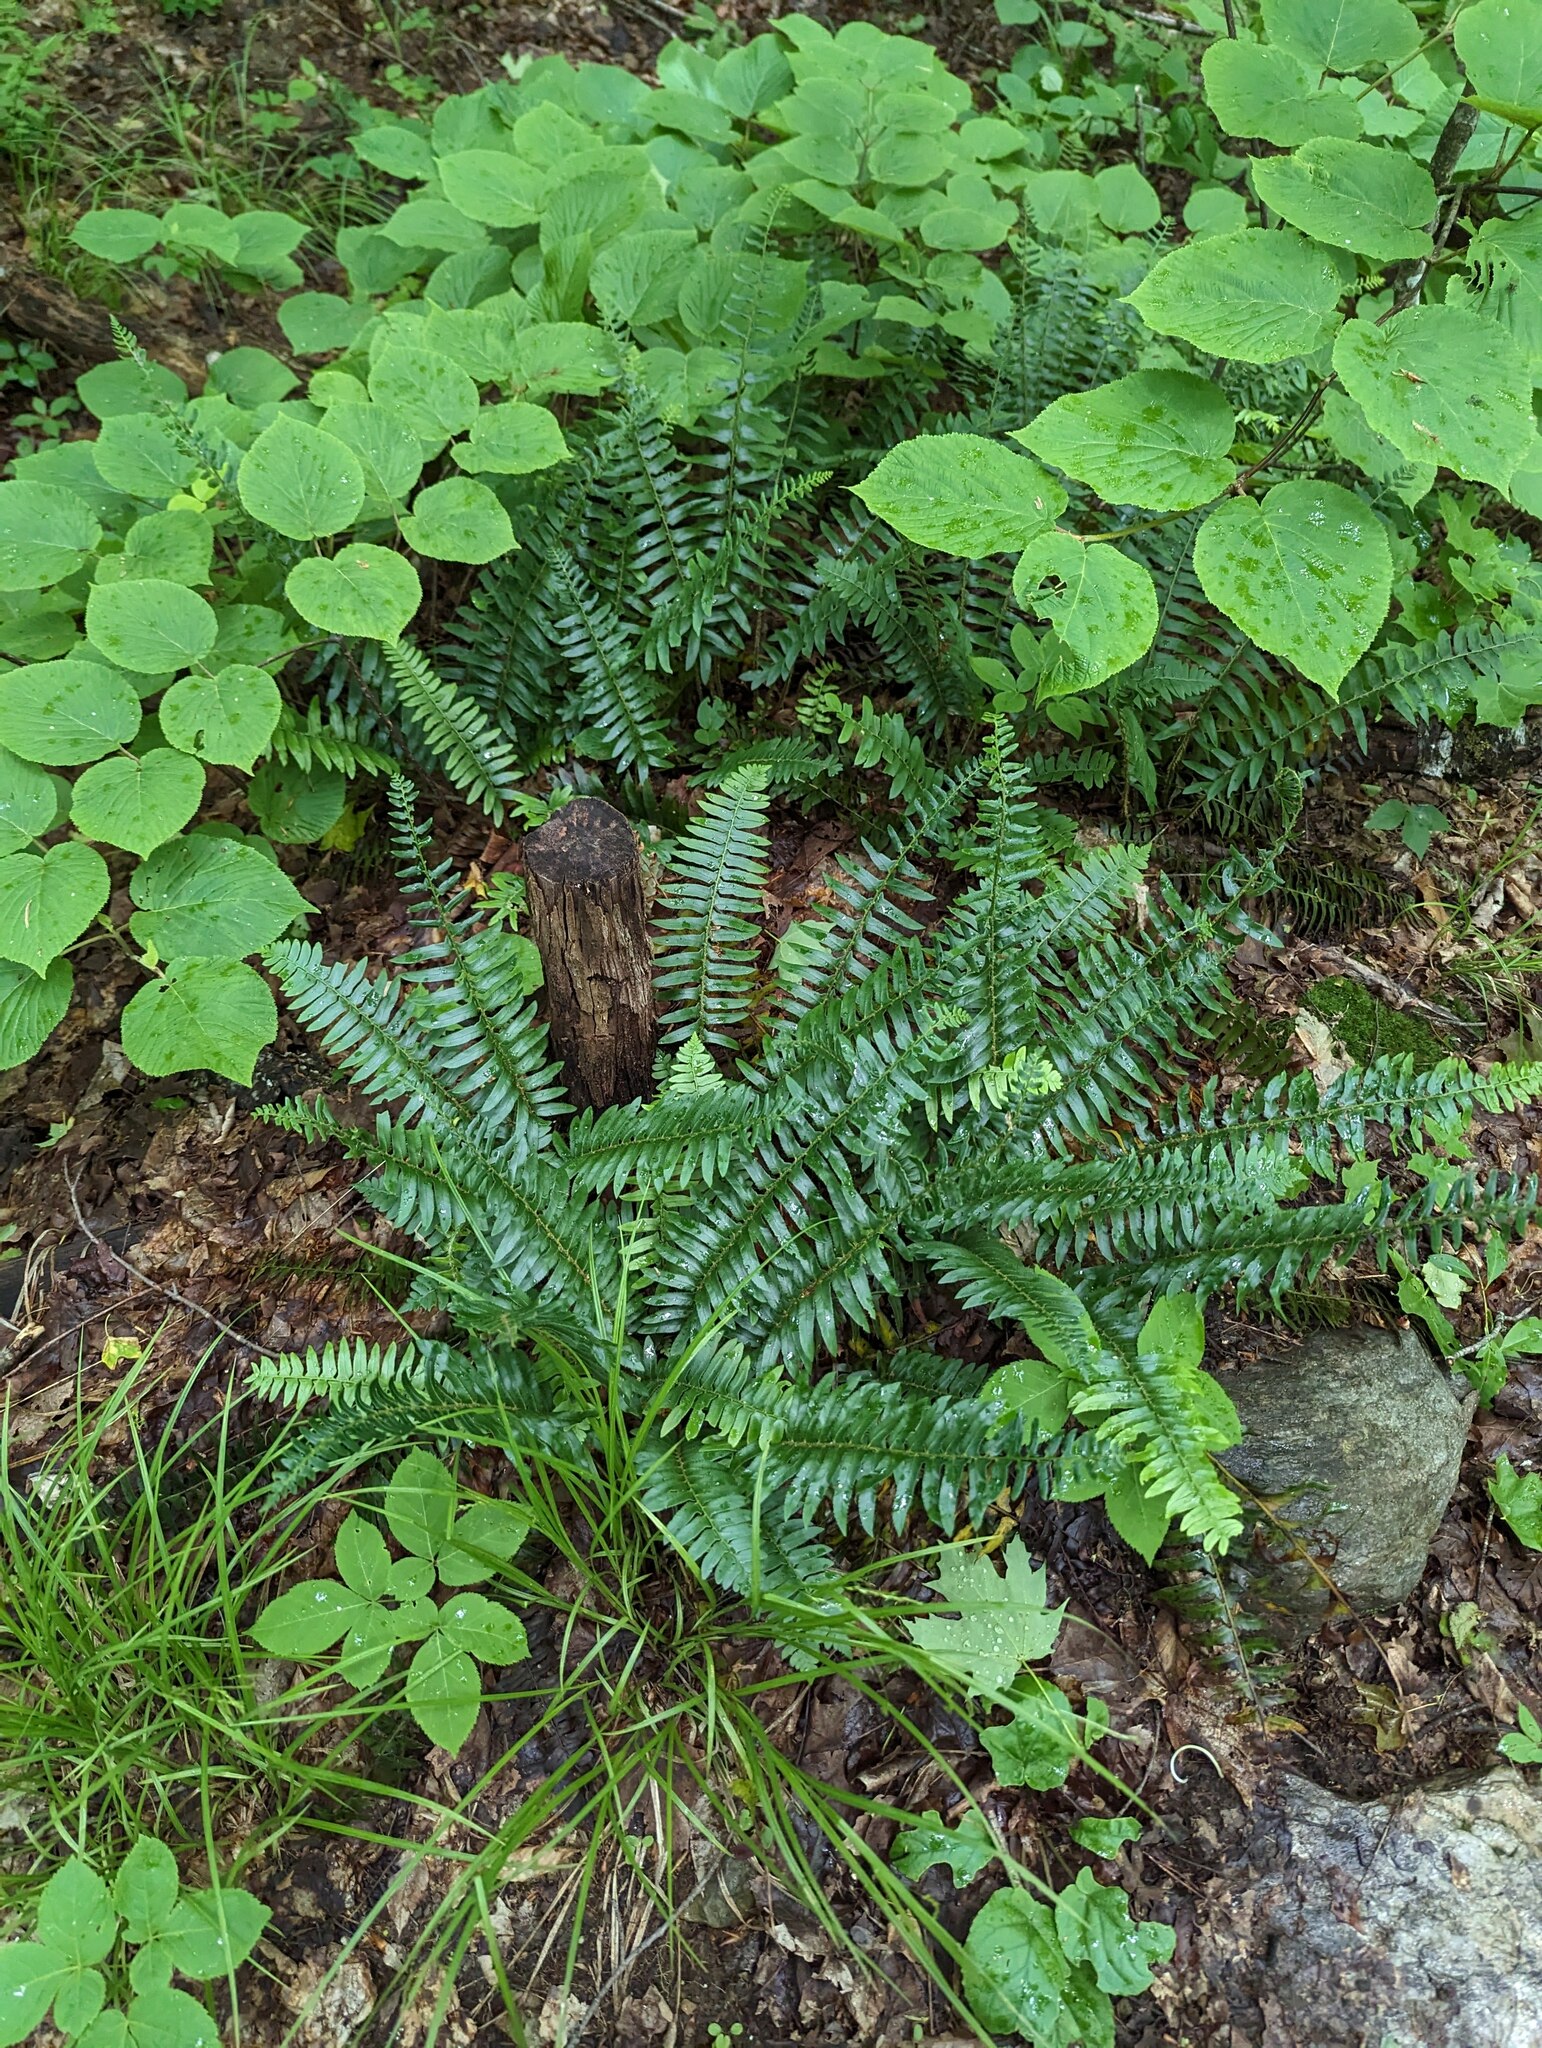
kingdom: Plantae
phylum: Tracheophyta
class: Polypodiopsida
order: Polypodiales
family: Dryopteridaceae
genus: Polystichum
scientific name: Polystichum acrostichoides
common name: Christmas fern
